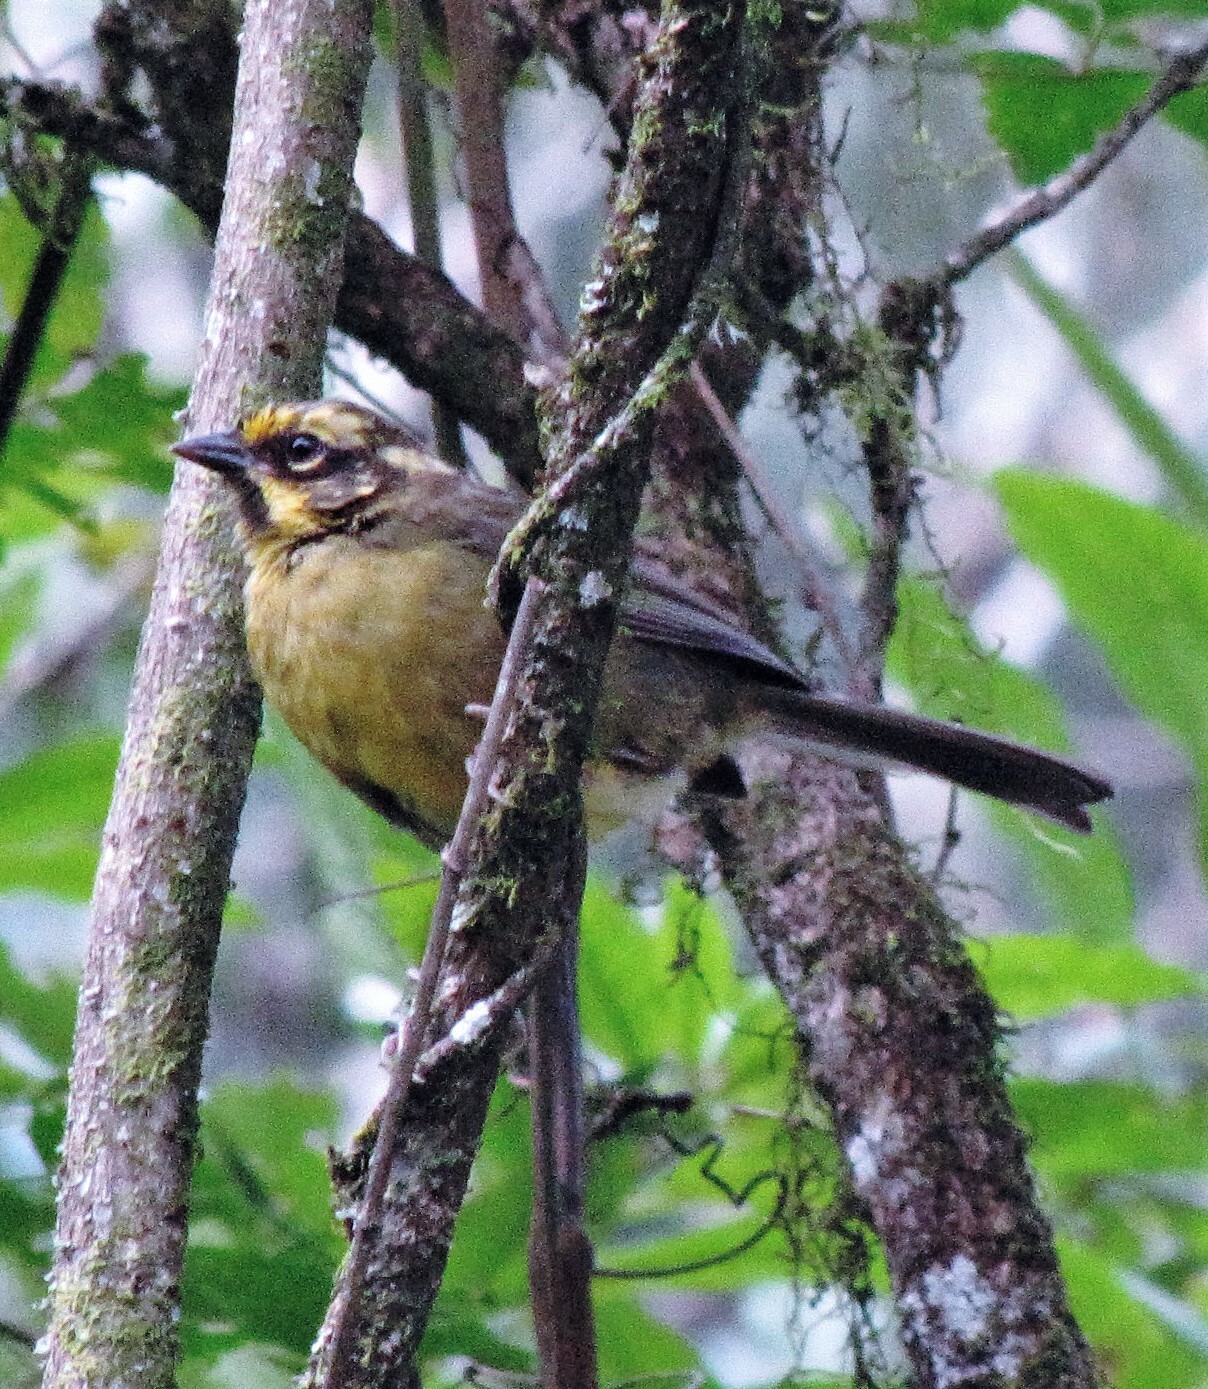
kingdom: Animalia
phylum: Chordata
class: Aves
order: Passeriformes
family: Passerellidae
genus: Atlapetes
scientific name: Atlapetes citrinellus
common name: Yellow-striped brushfinch
